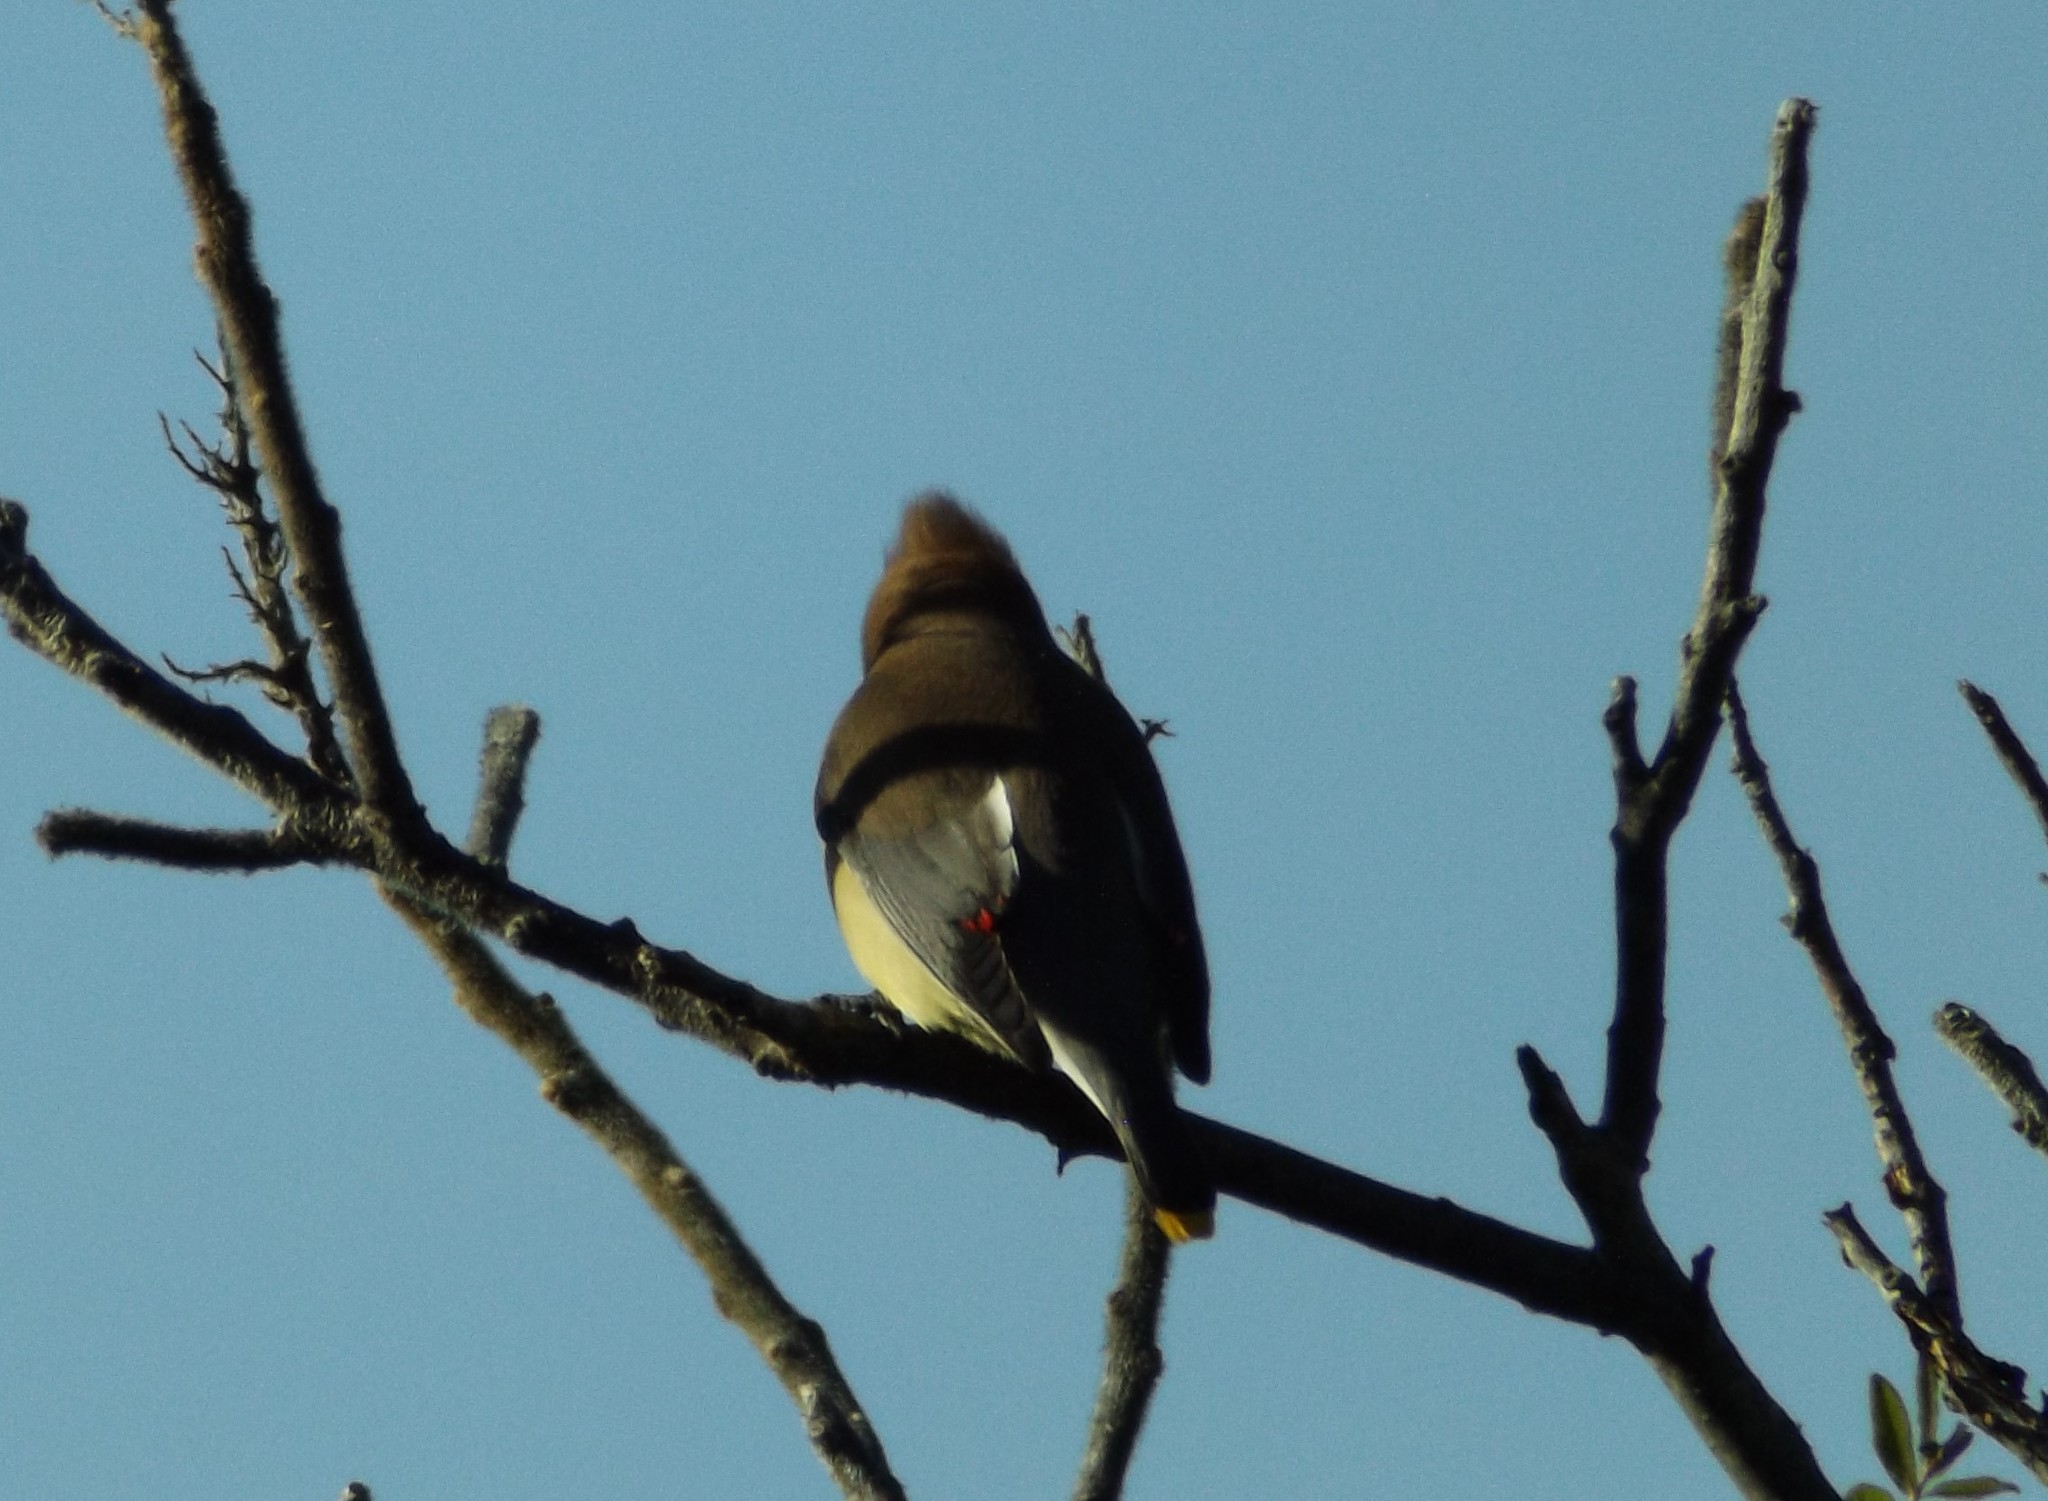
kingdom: Animalia
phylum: Chordata
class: Aves
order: Passeriformes
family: Bombycillidae
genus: Bombycilla
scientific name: Bombycilla cedrorum
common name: Cedar waxwing
